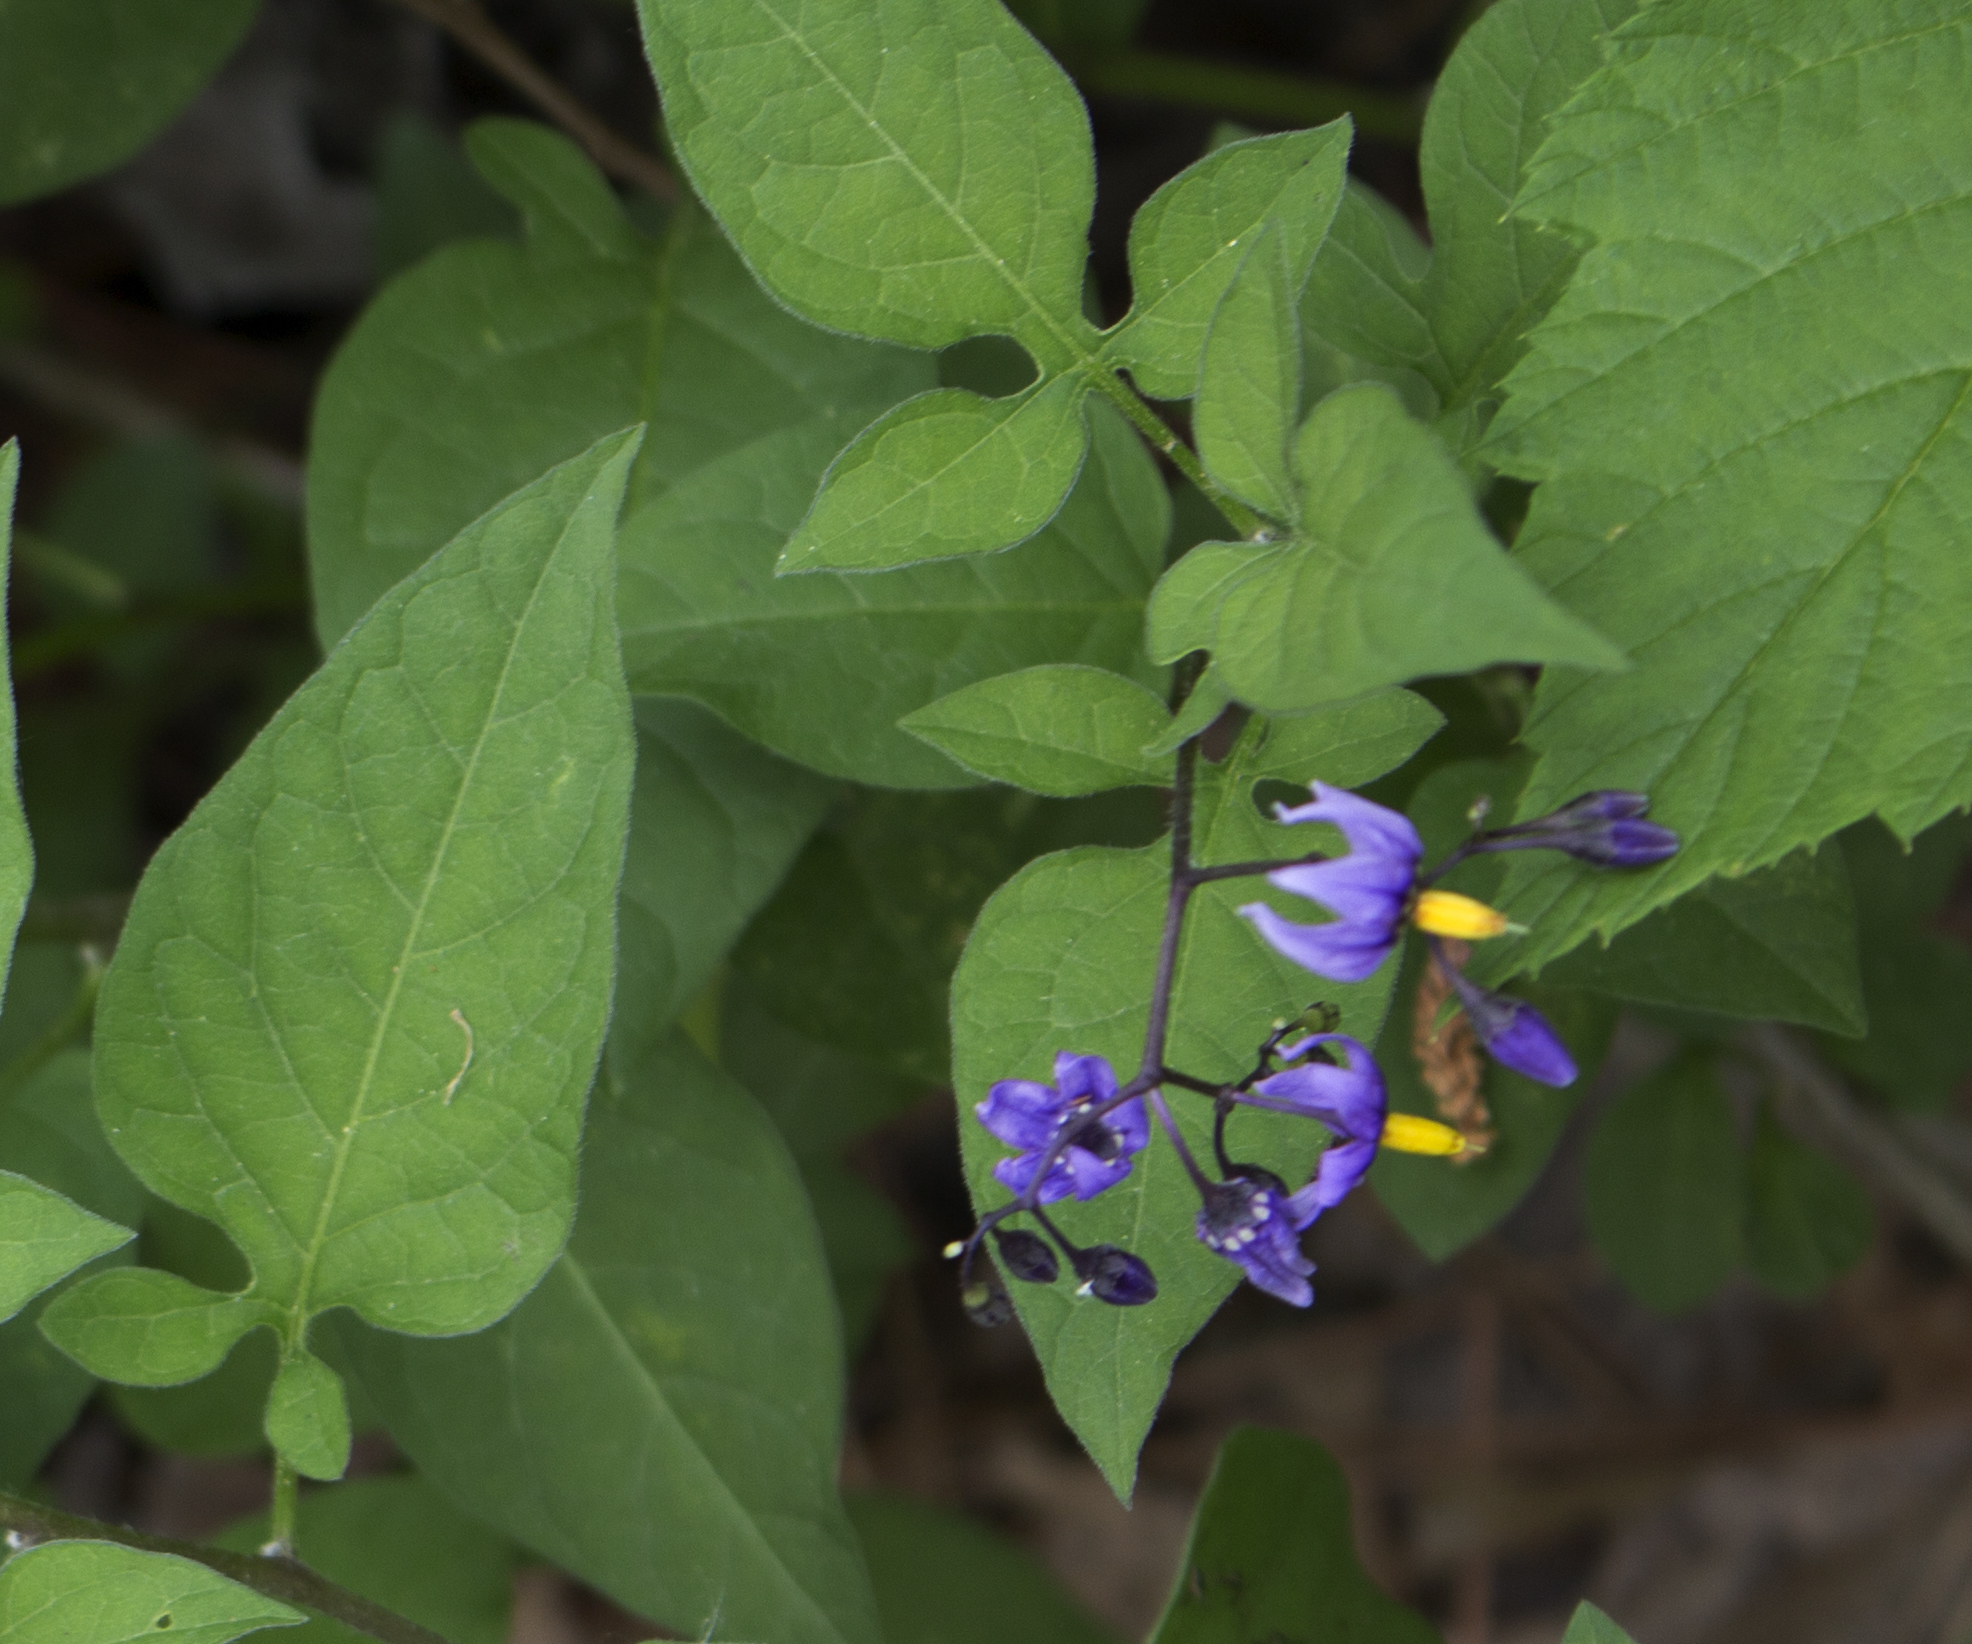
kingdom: Plantae
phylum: Tracheophyta
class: Magnoliopsida
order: Solanales
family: Solanaceae
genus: Solanum
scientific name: Solanum dulcamara
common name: Climbing nightshade
